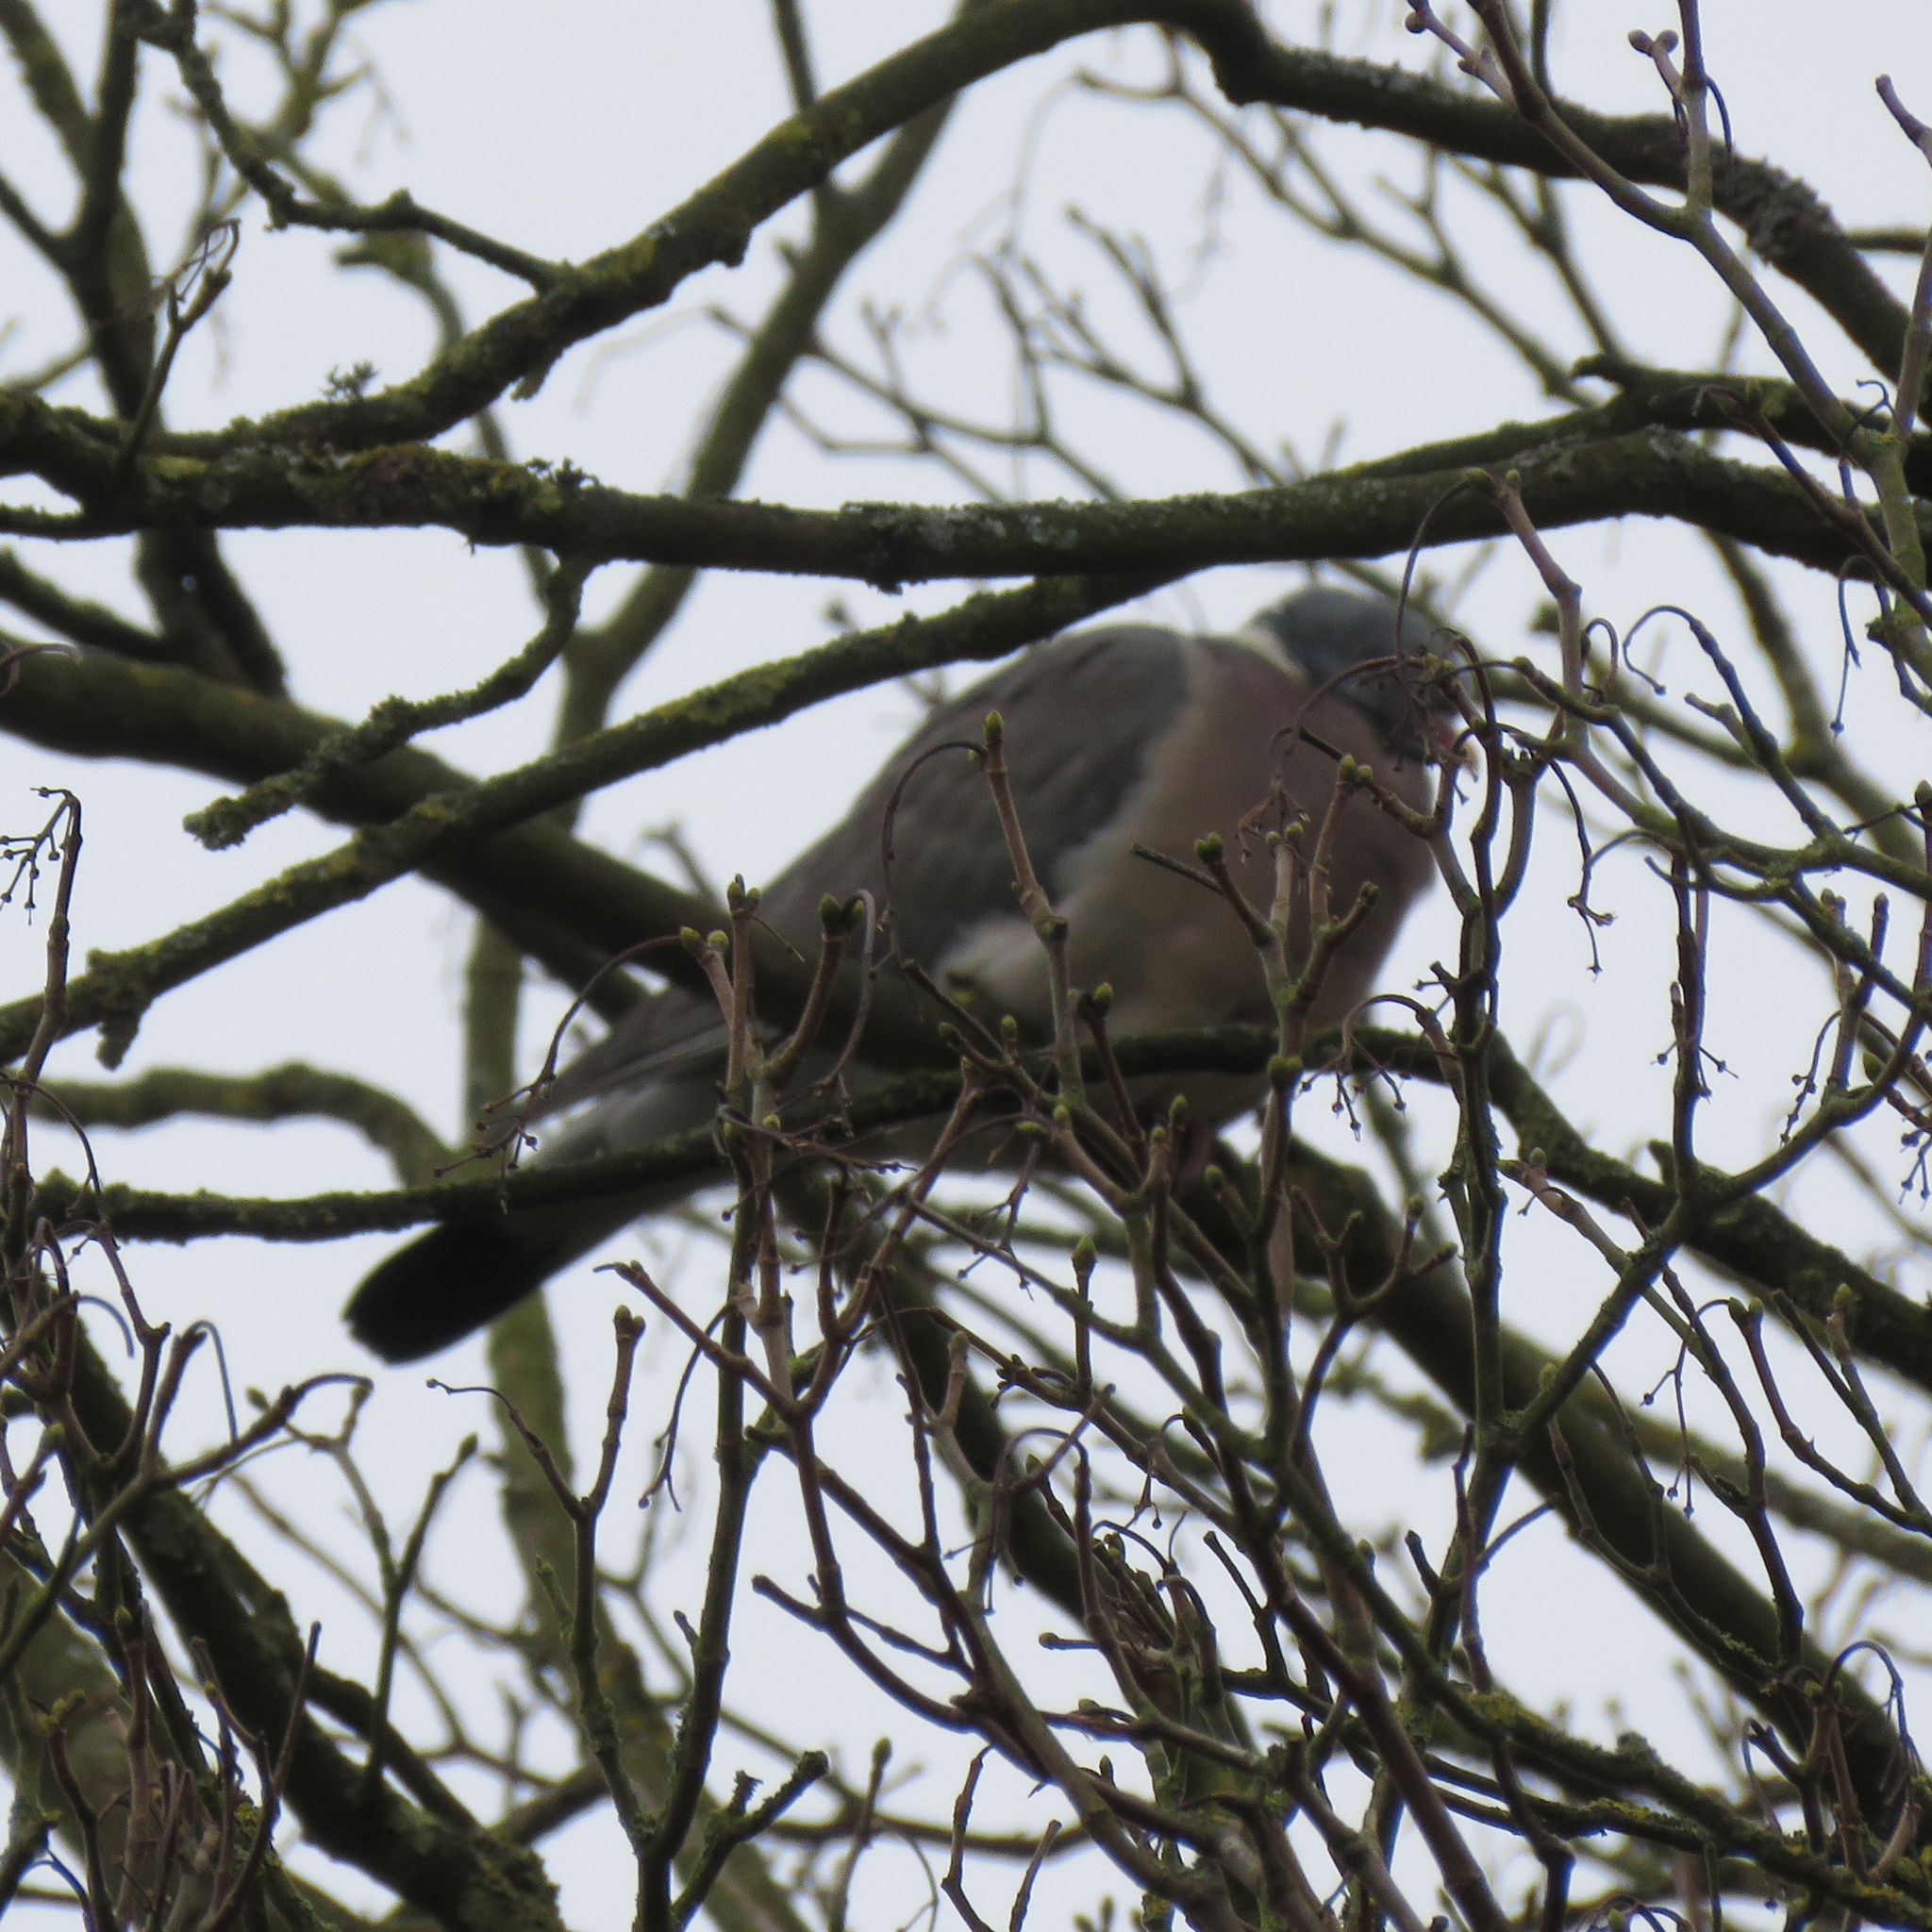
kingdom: Animalia
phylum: Chordata
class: Aves
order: Columbiformes
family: Columbidae
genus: Columba
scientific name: Columba palumbus
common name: Common wood pigeon
